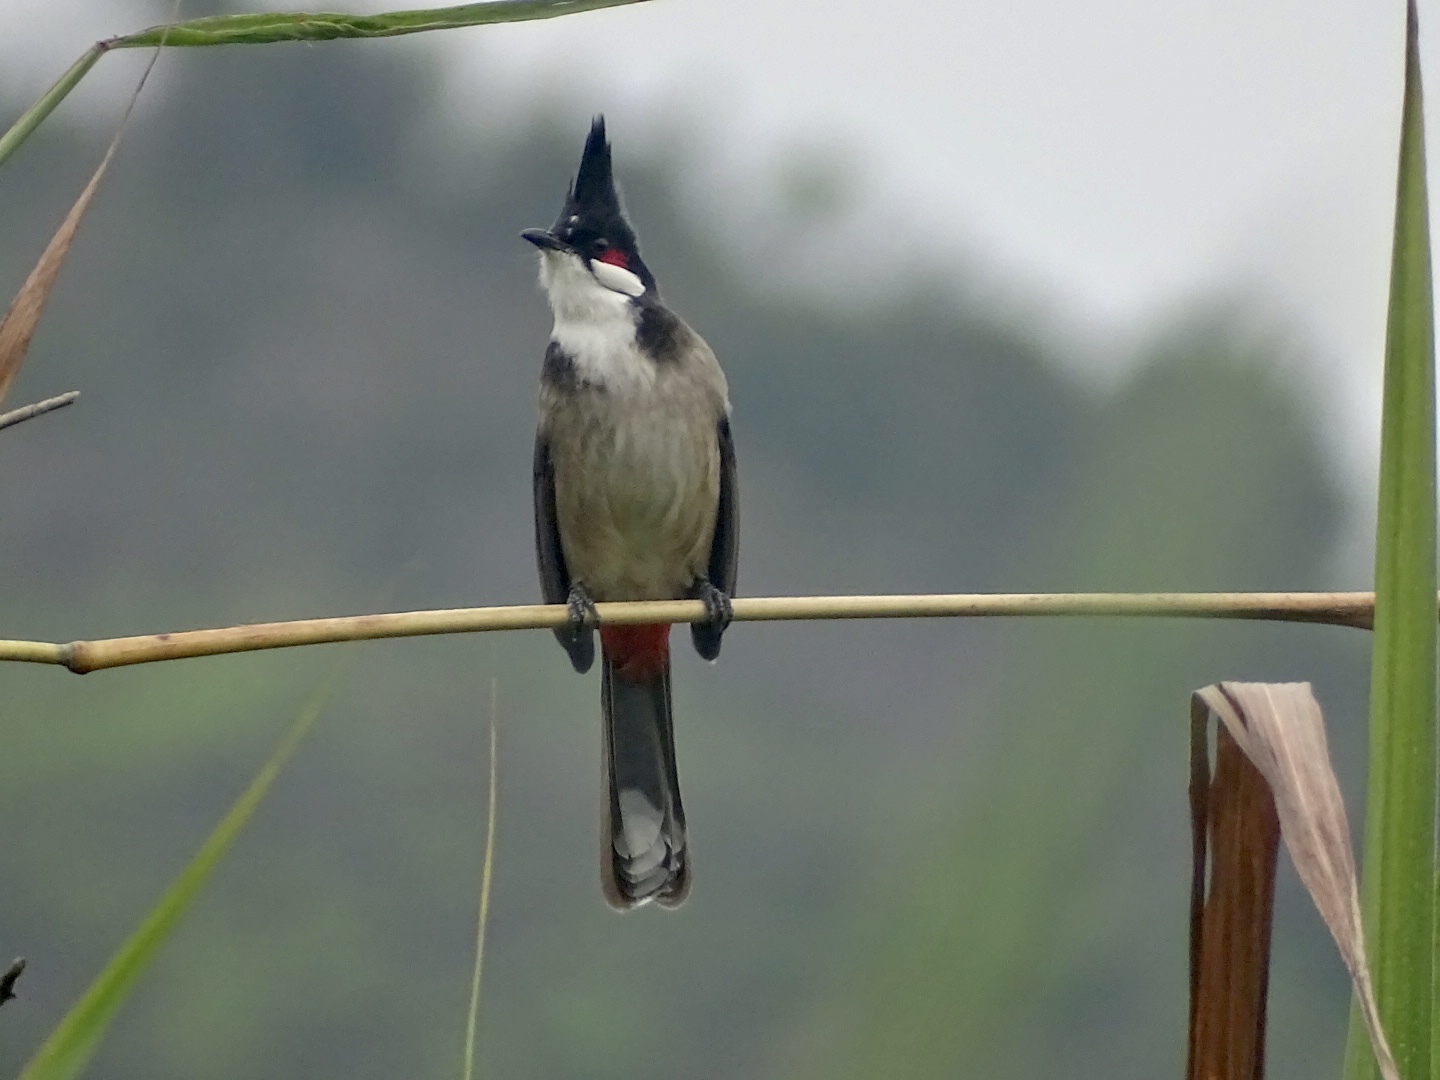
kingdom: Animalia
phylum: Chordata
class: Aves
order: Passeriformes
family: Pycnonotidae
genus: Pycnonotus
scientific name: Pycnonotus jocosus
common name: Red-whiskered bulbul
